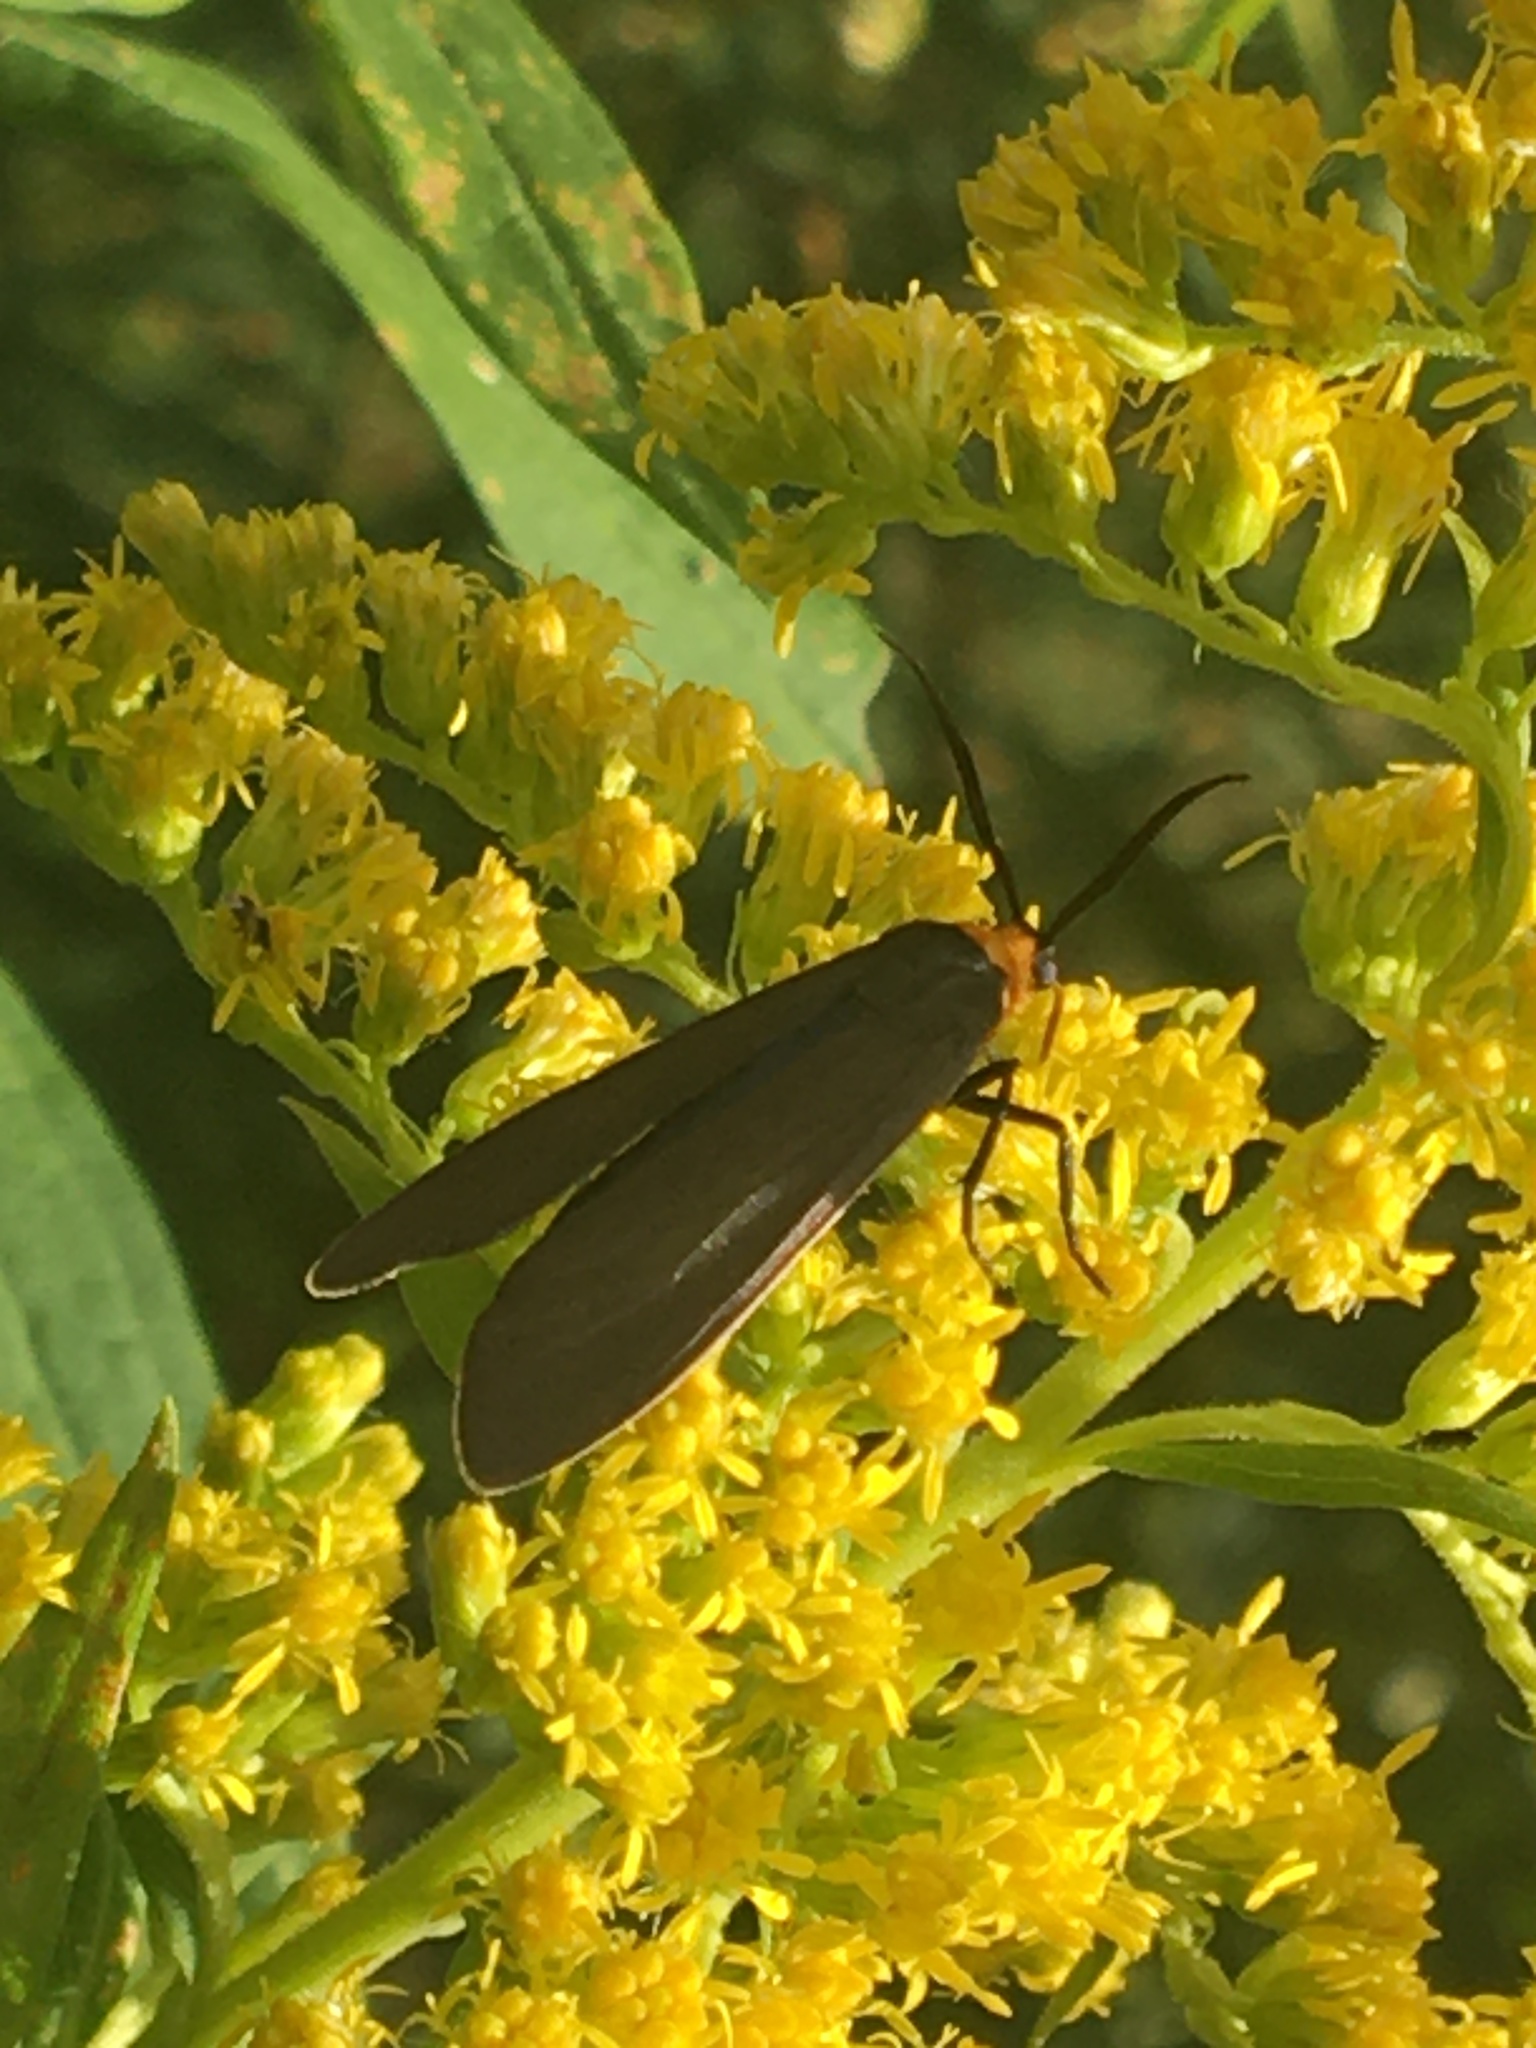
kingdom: Animalia
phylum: Arthropoda
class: Insecta
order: Lepidoptera
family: Erebidae
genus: Cisseps
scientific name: Cisseps fulvicollis
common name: Yellow-collared scape moth
